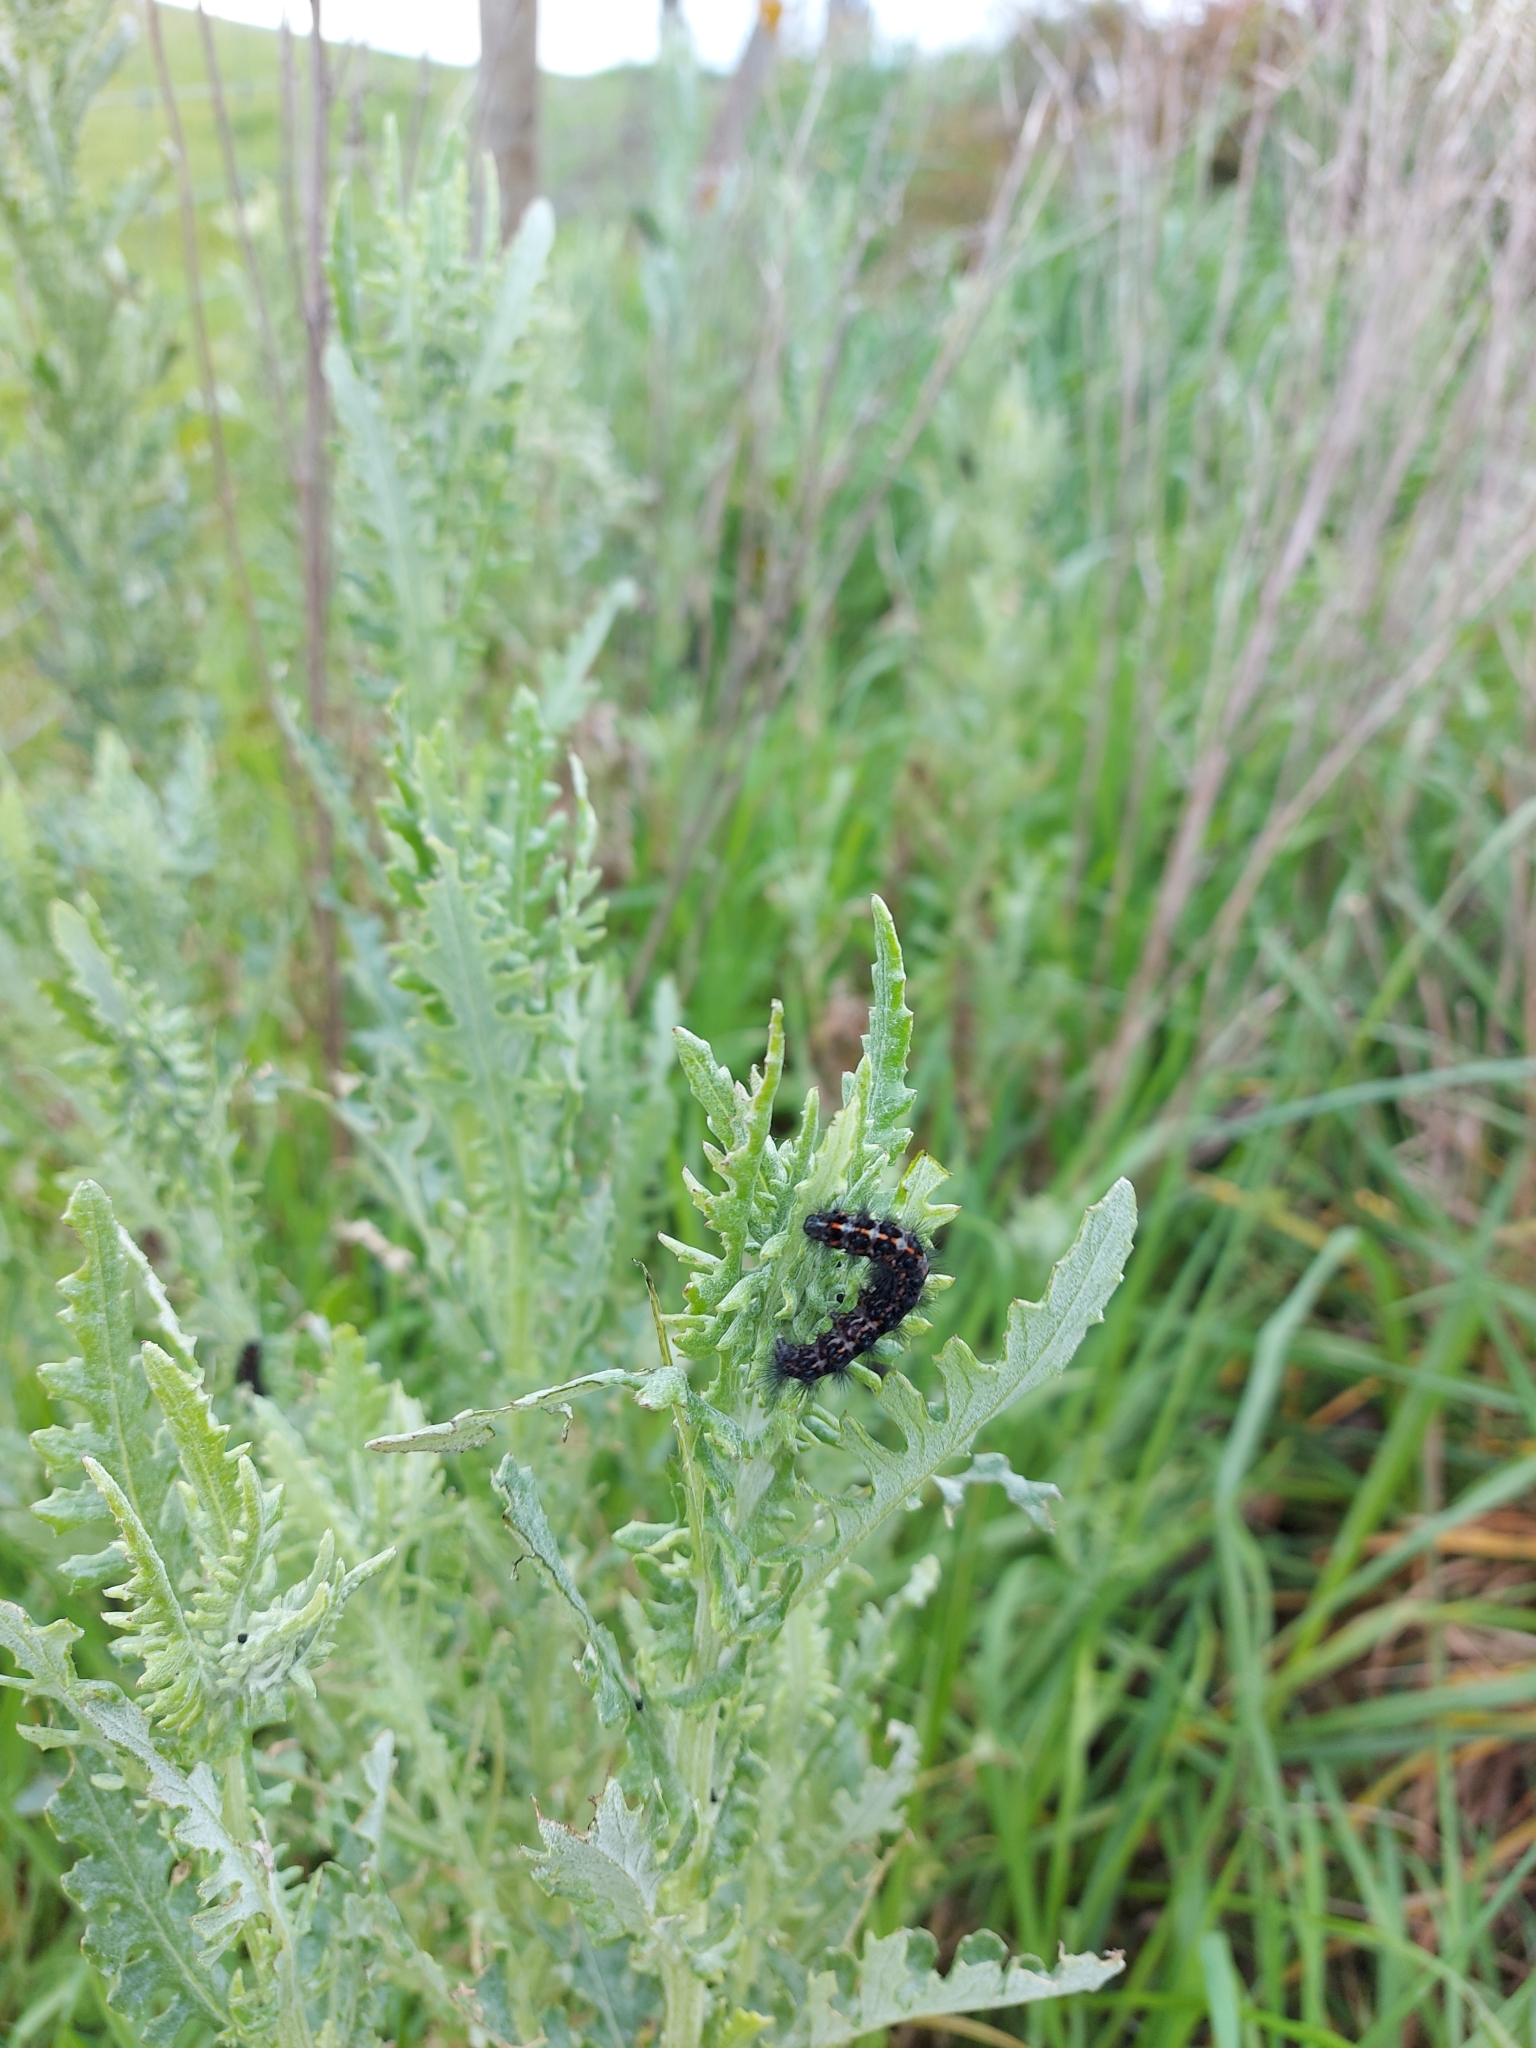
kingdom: Animalia
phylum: Arthropoda
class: Insecta
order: Lepidoptera
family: Erebidae
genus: Nyctemera
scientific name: Nyctemera annulatum
